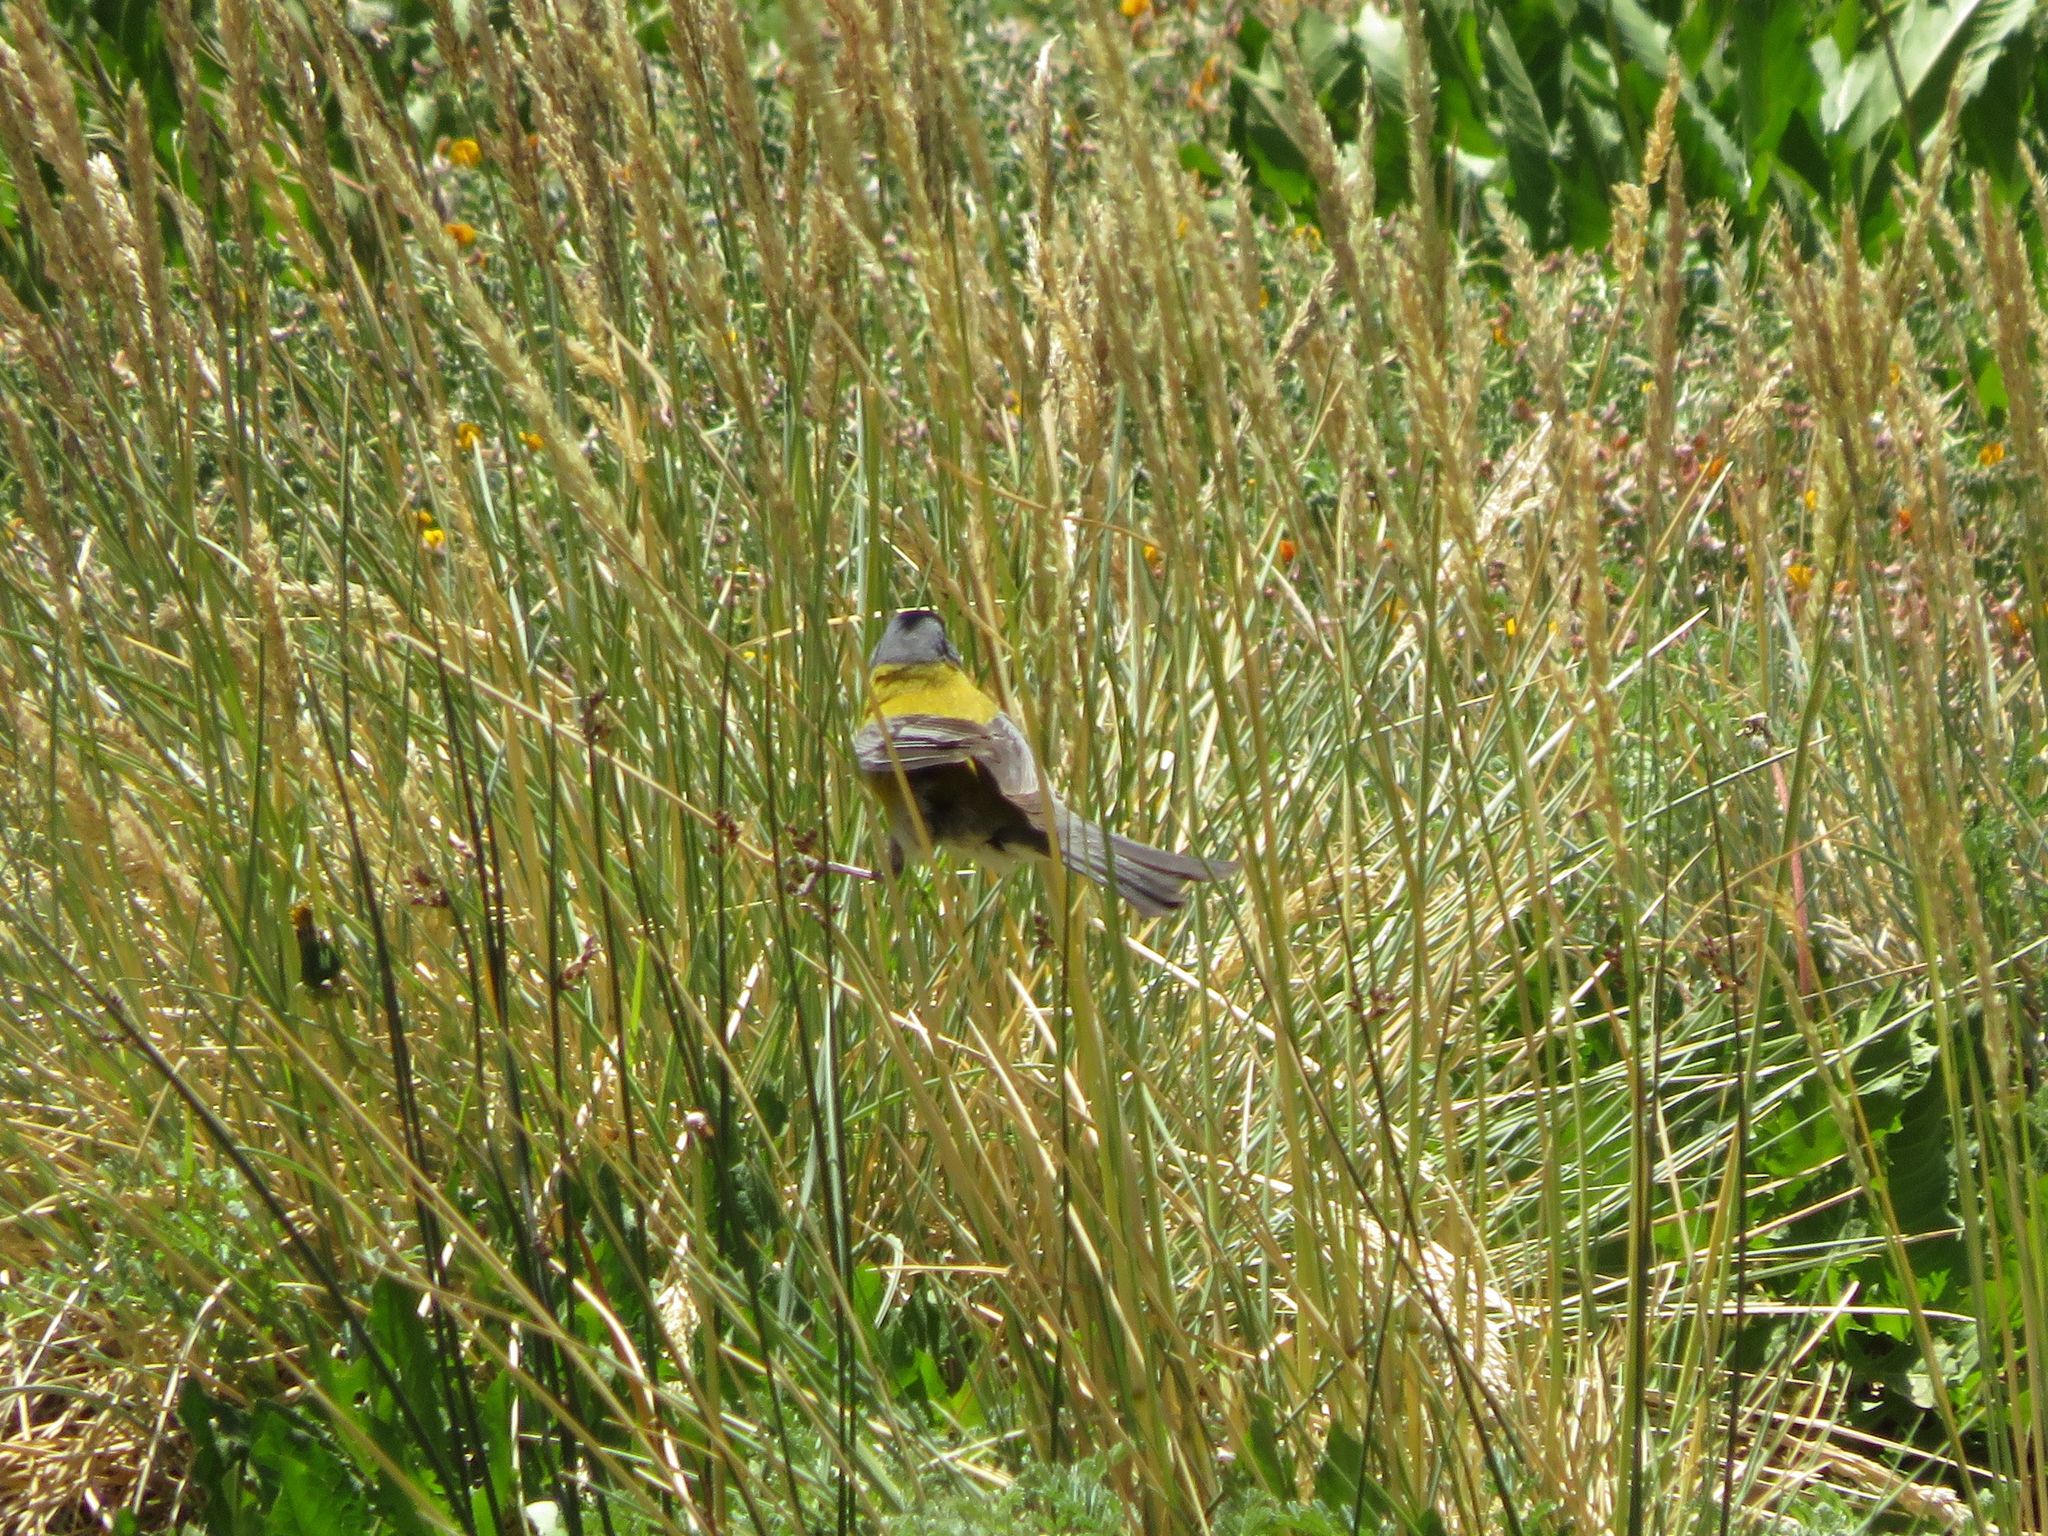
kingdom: Animalia
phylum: Chordata
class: Aves
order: Passeriformes
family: Thraupidae
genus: Phrygilus
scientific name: Phrygilus gayi
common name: Grey-hooded sierra finch
